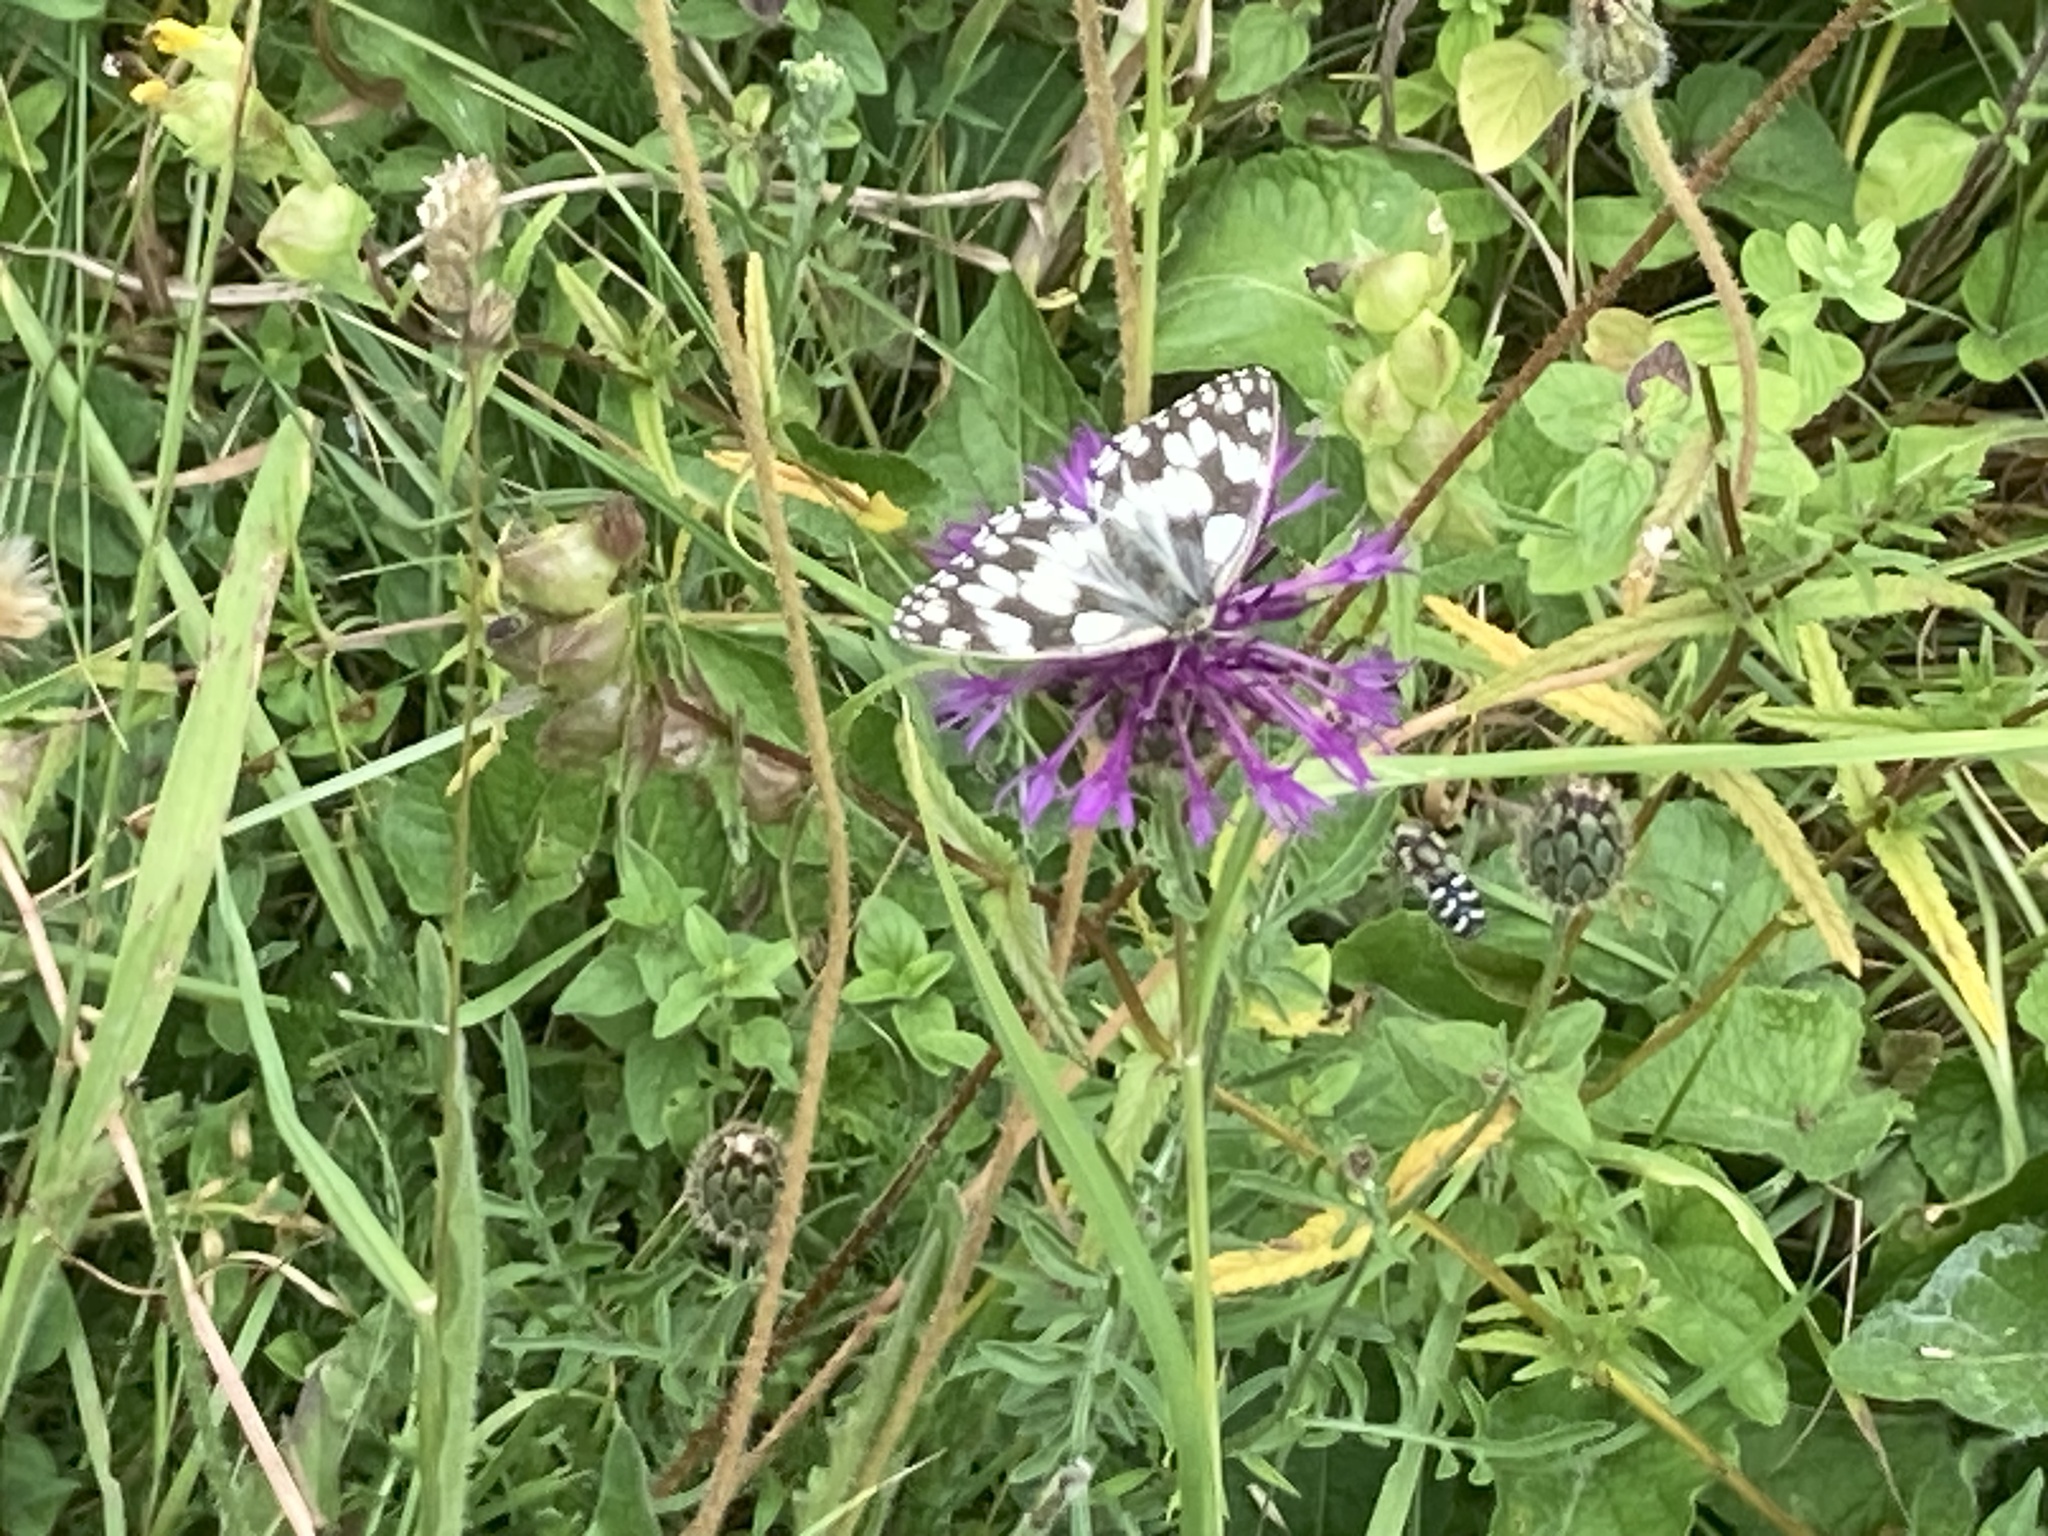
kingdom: Animalia
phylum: Arthropoda
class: Insecta
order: Lepidoptera
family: Nymphalidae
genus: Melanargia
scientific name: Melanargia galathea
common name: Marbled white
